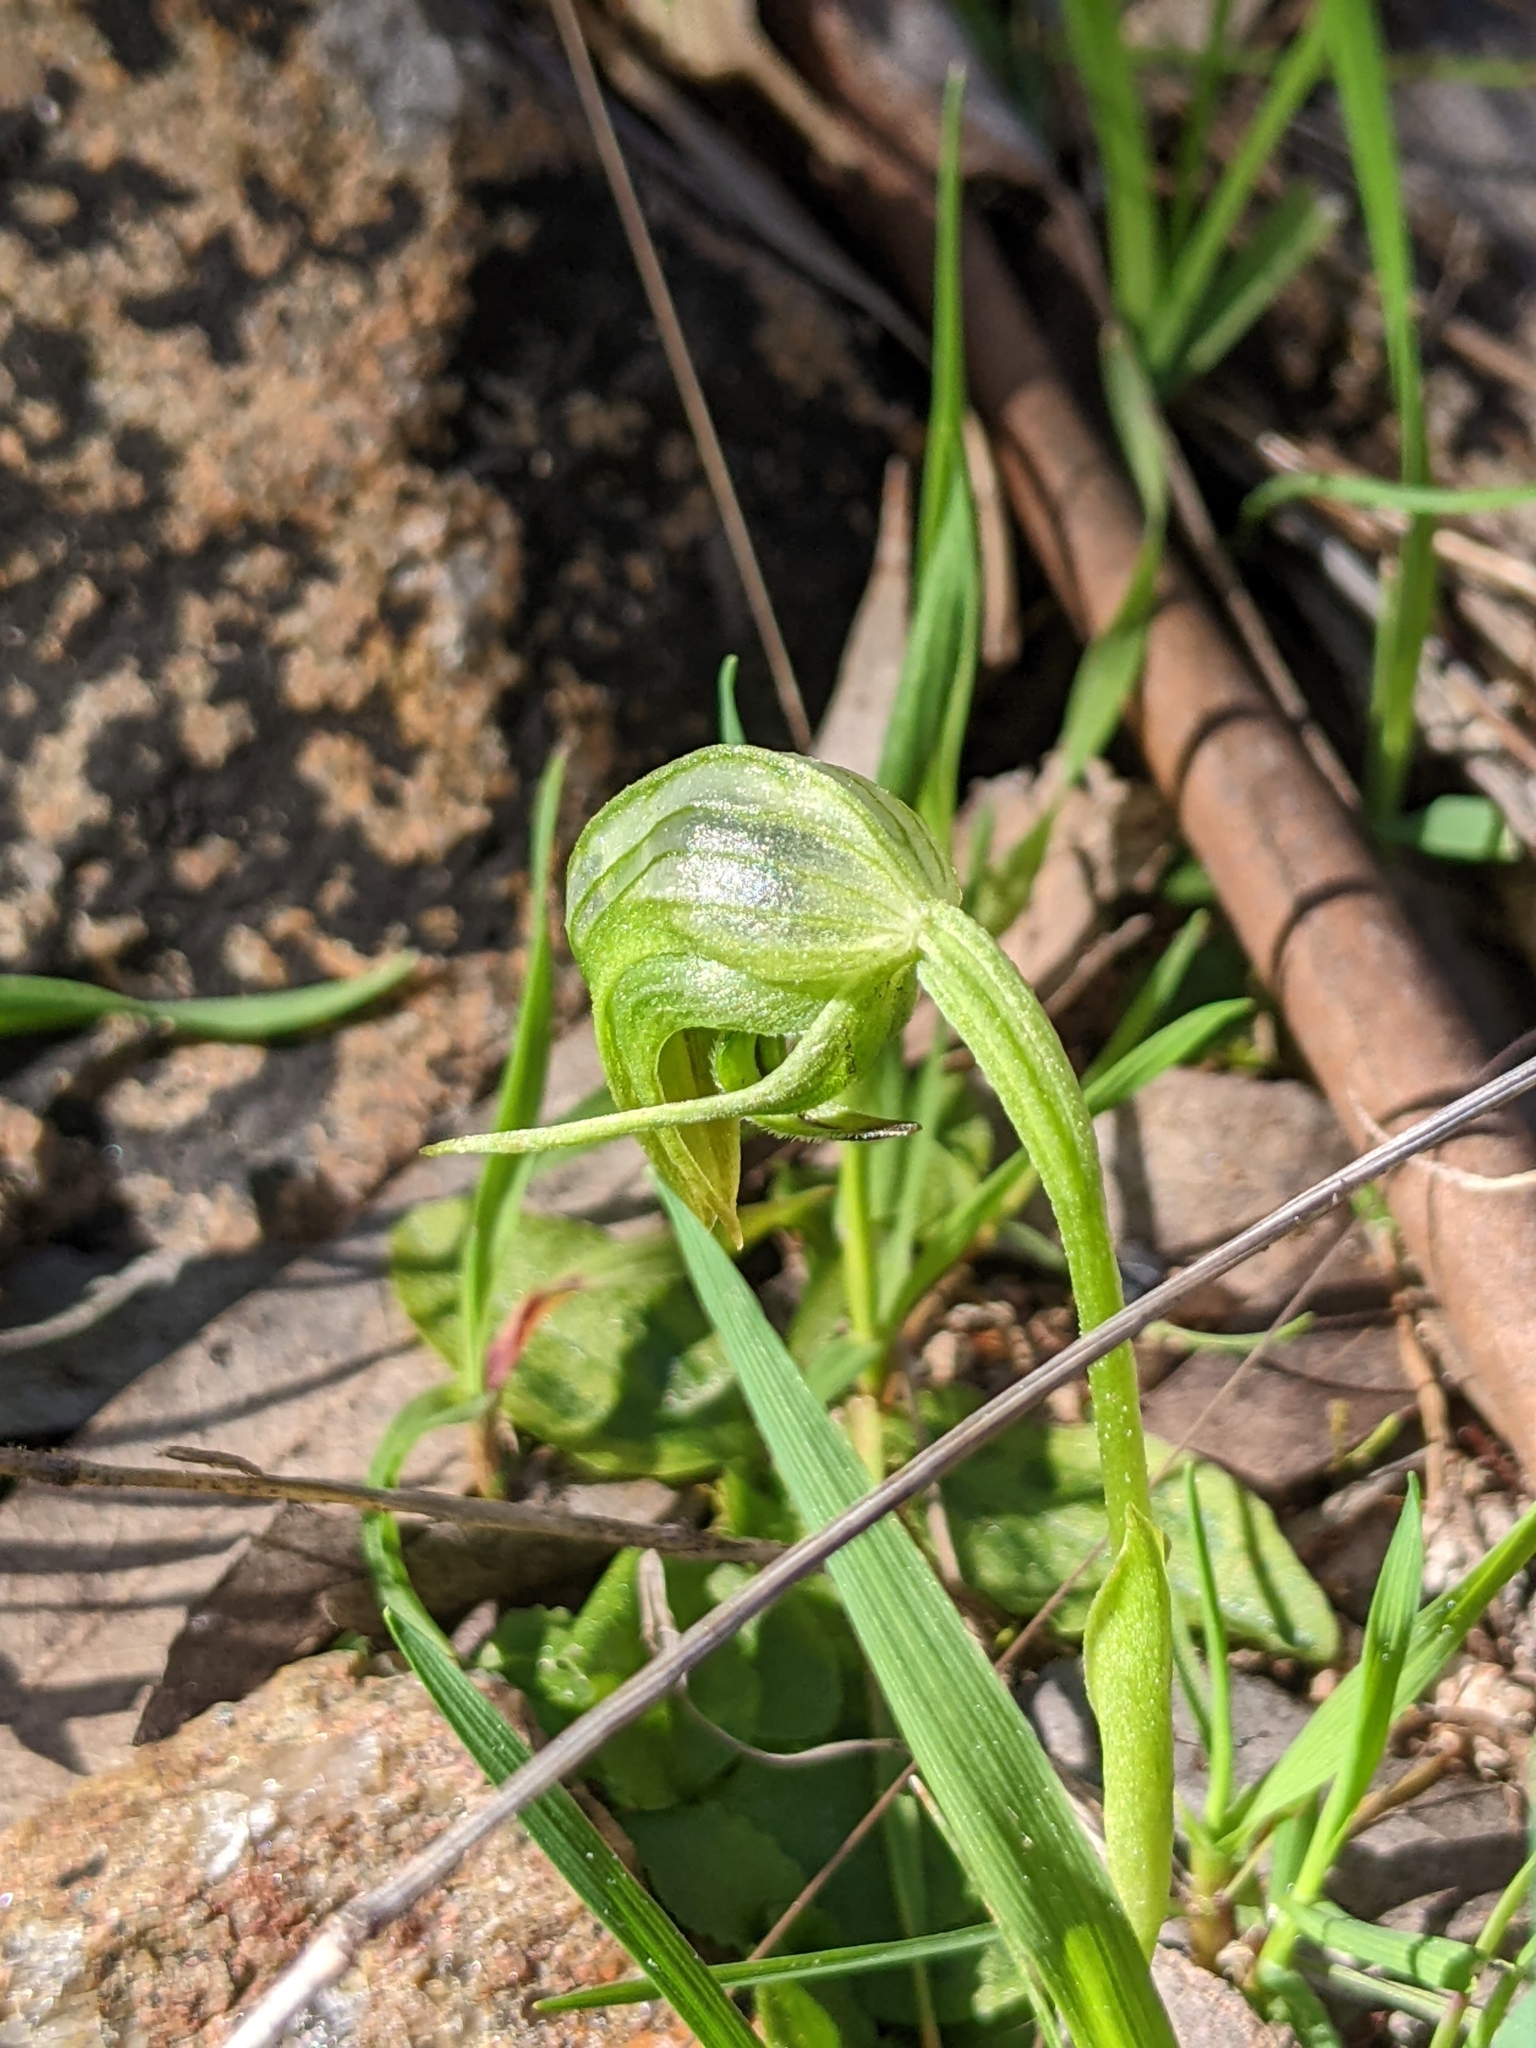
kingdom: Plantae
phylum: Tracheophyta
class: Liliopsida
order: Asparagales
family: Orchidaceae
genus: Pterostylis
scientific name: Pterostylis nutans
